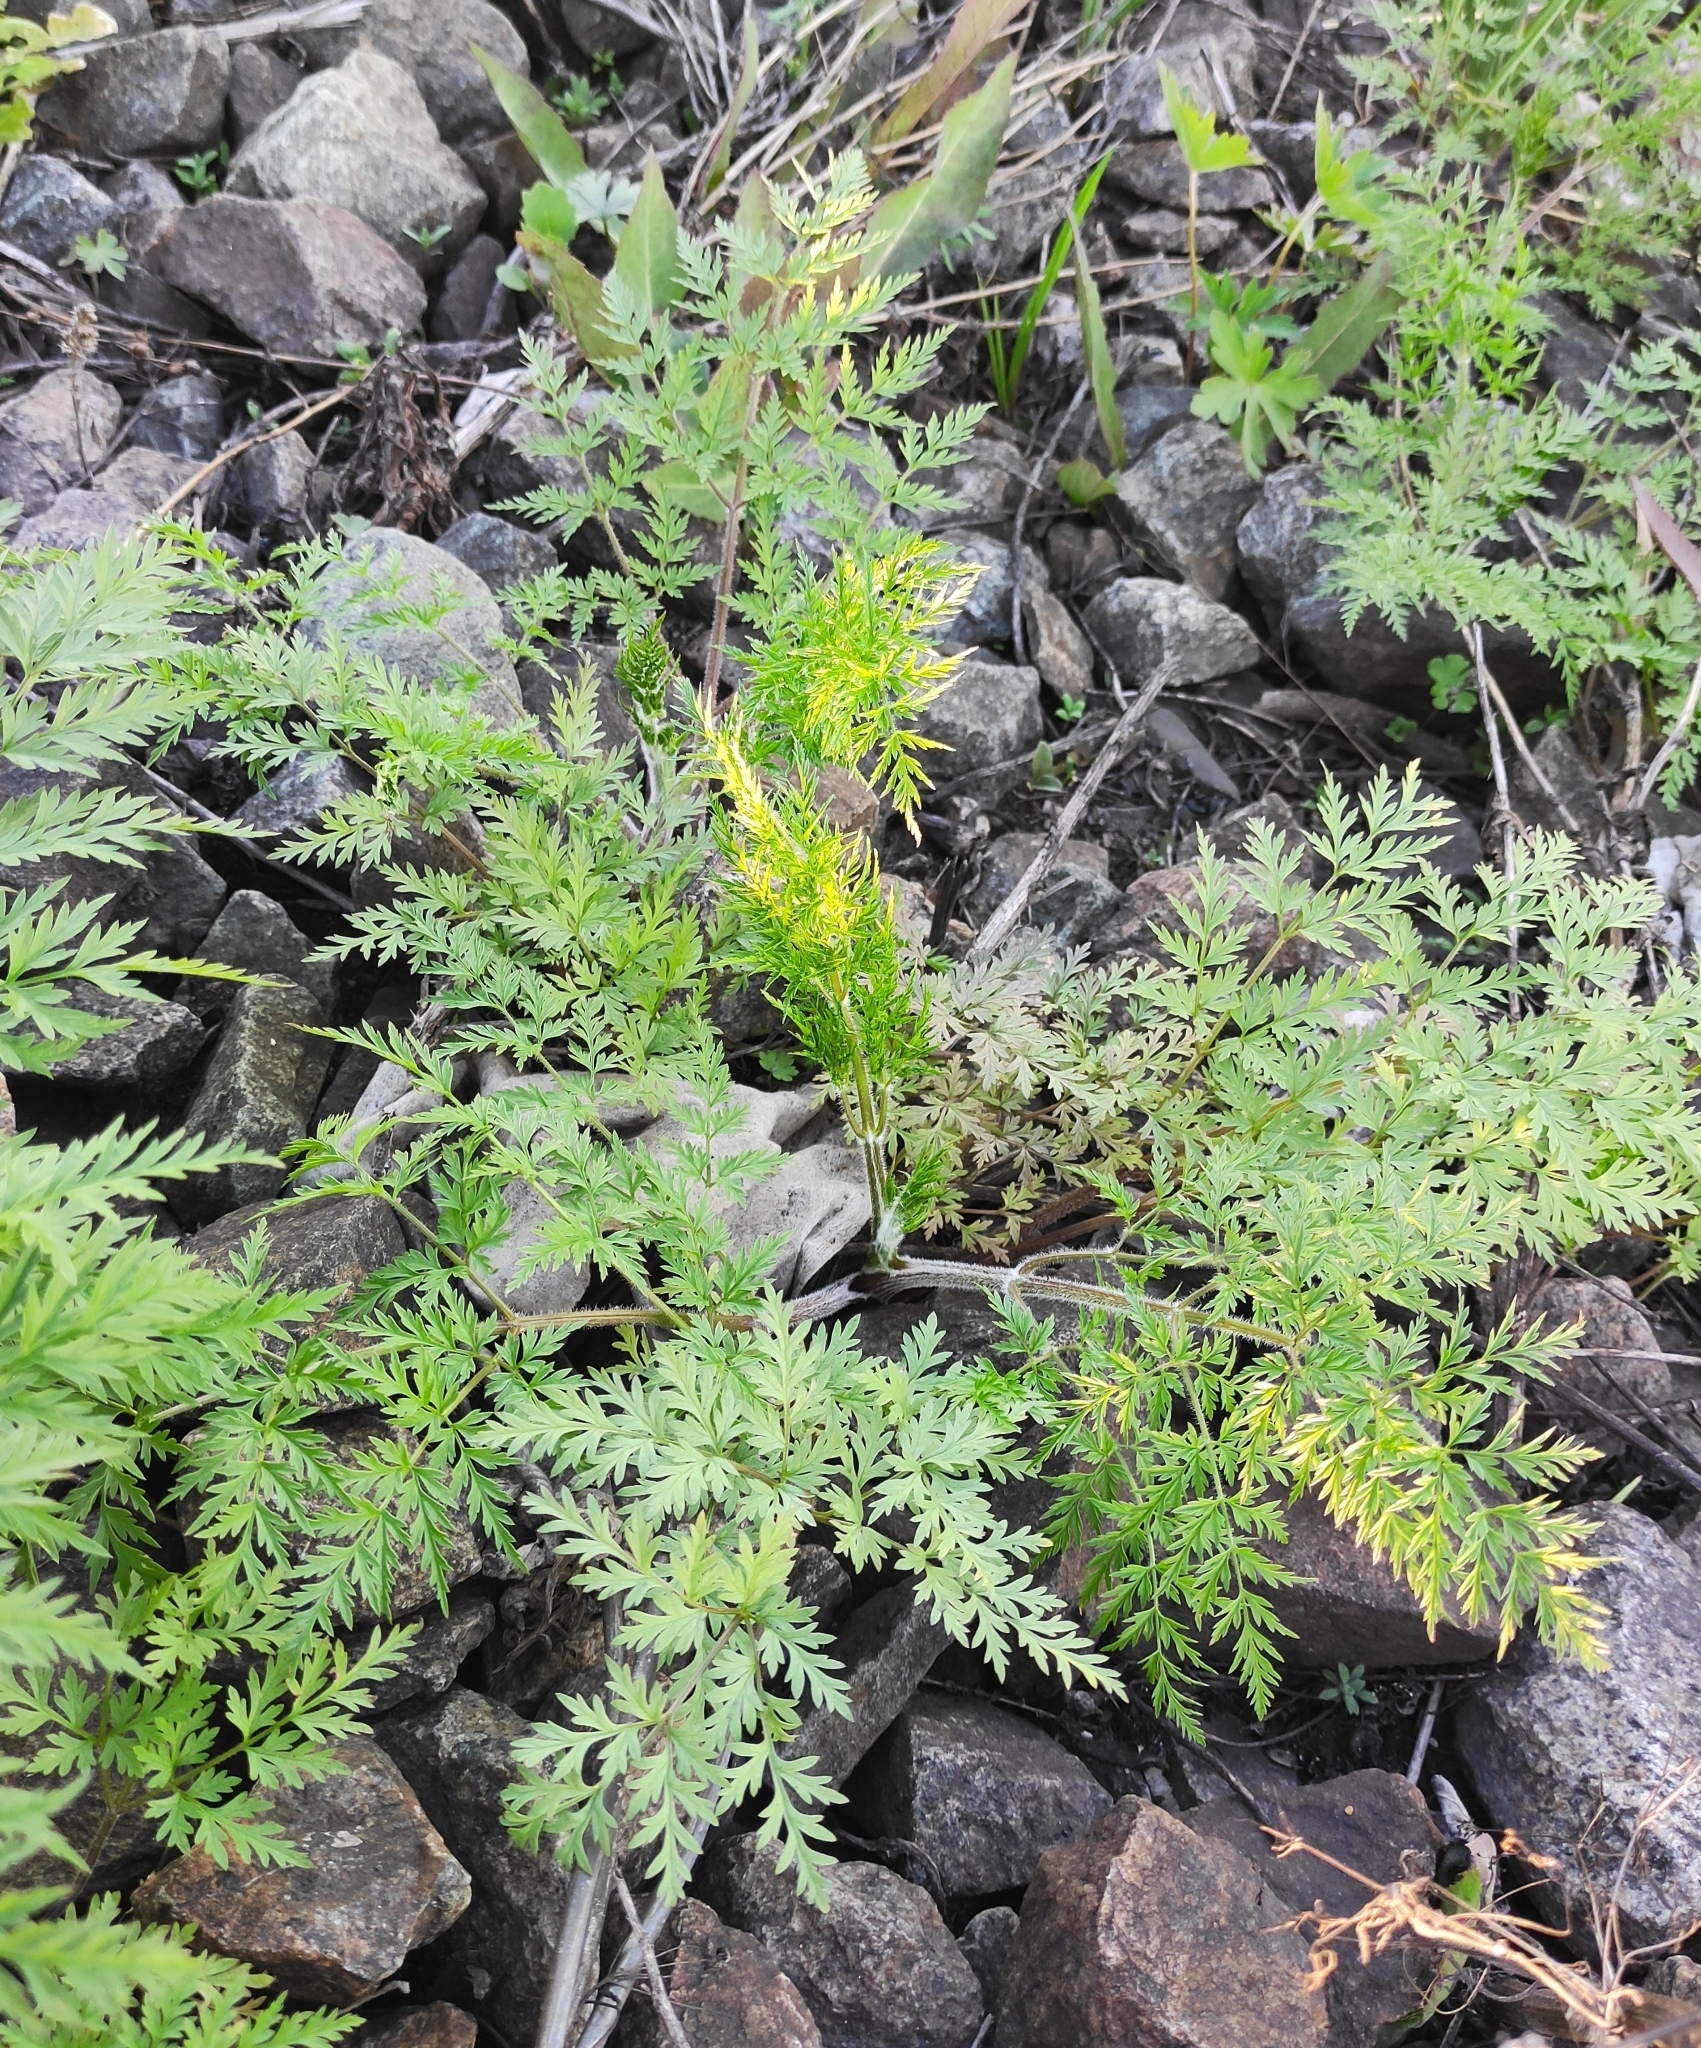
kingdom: Plantae
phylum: Tracheophyta
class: Magnoliopsida
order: Apiales
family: Apiaceae
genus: Sphallerocarpus
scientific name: Sphallerocarpus gracilis
